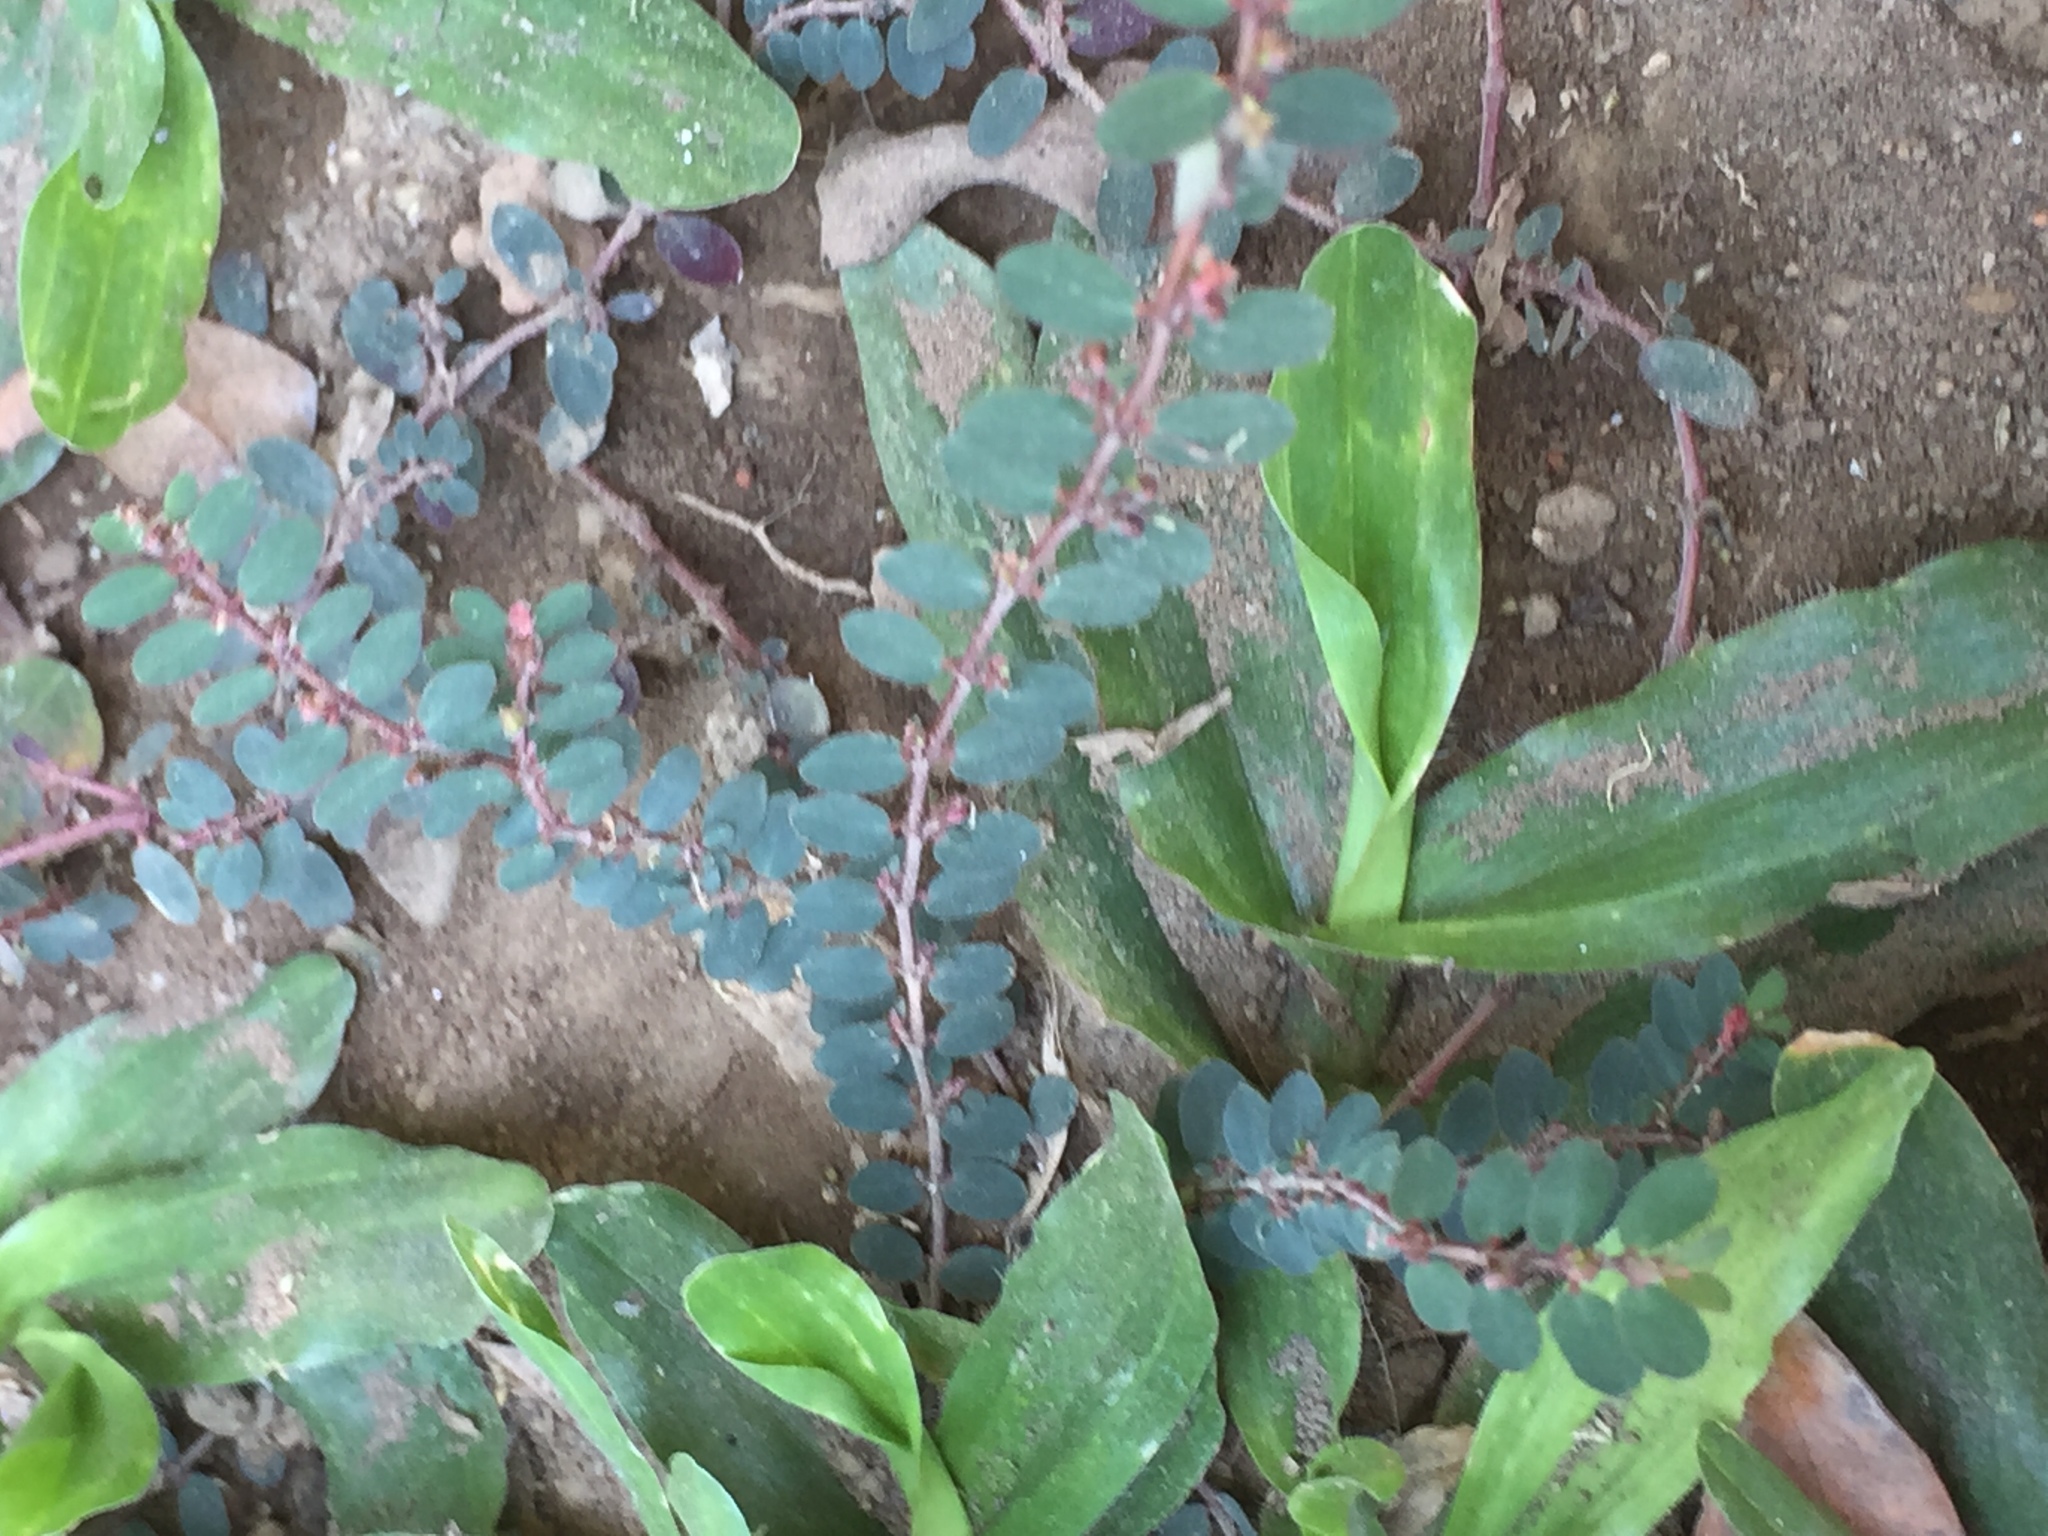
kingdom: Plantae
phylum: Tracheophyta
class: Magnoliopsida
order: Malpighiales
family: Euphorbiaceae
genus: Euphorbia
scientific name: Euphorbia prostrata
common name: Prostrate sandmat
